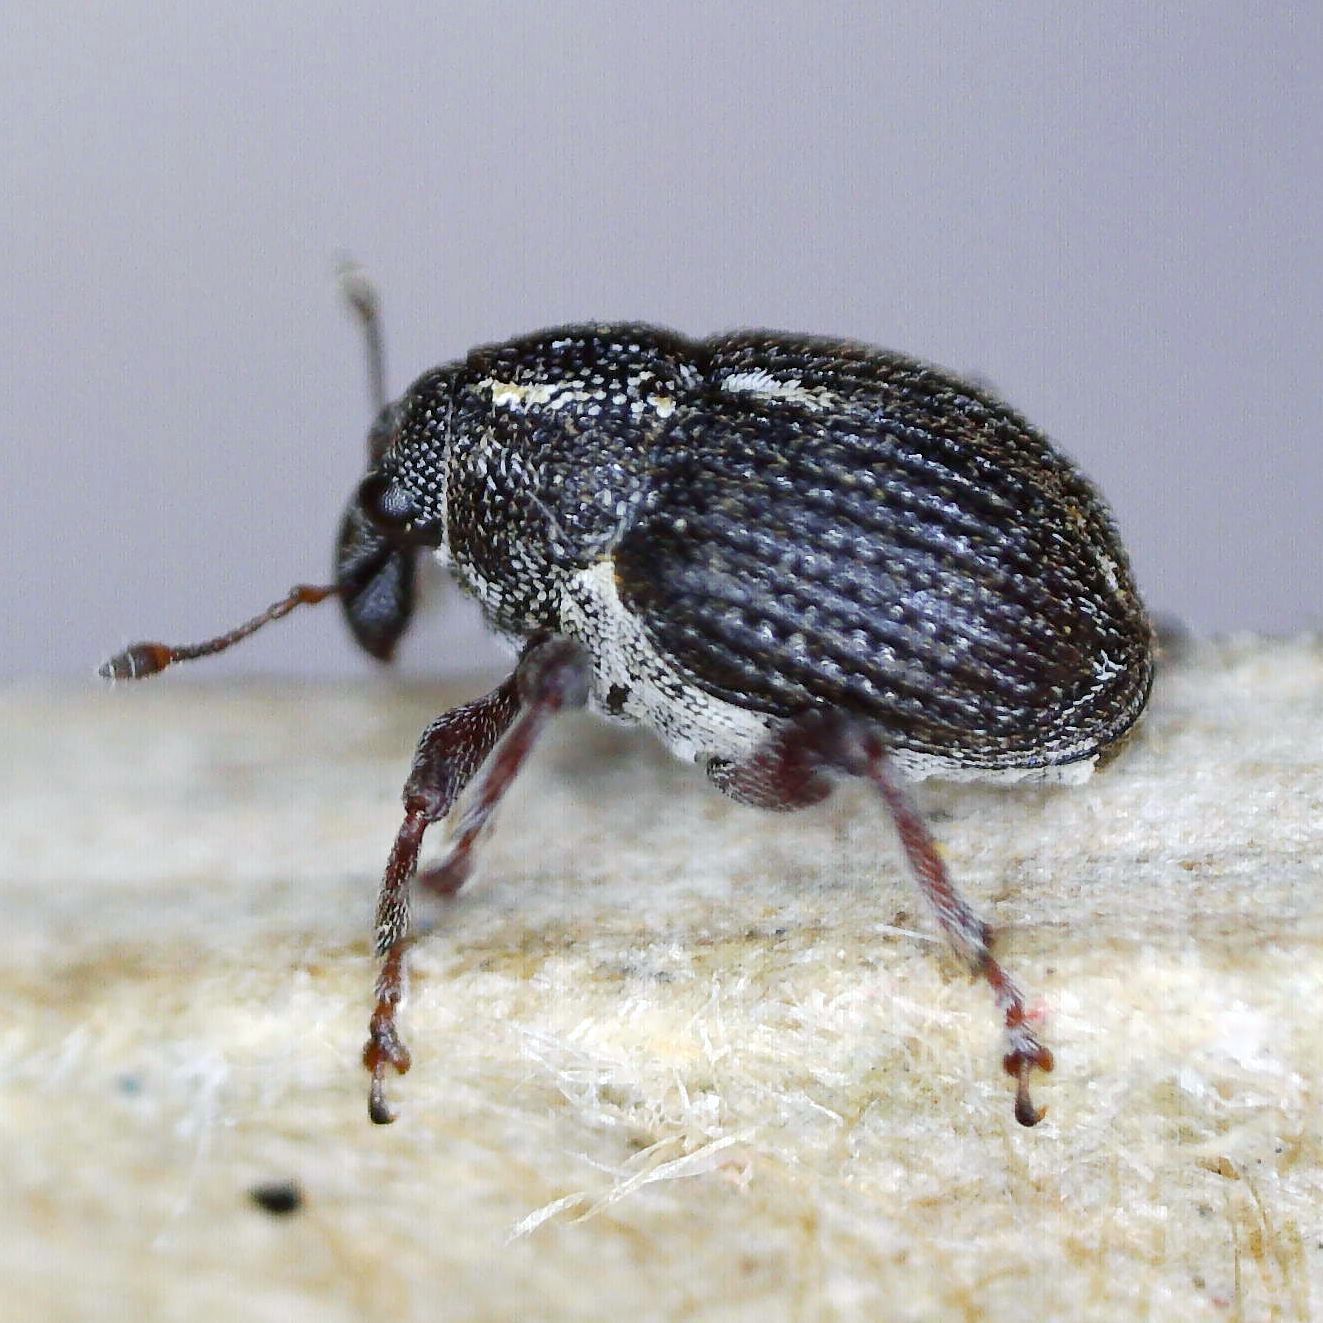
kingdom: Animalia
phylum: Arthropoda
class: Insecta
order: Coleoptera
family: Curculionidae
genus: Rhinoncus
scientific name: Rhinoncus leucostigma
